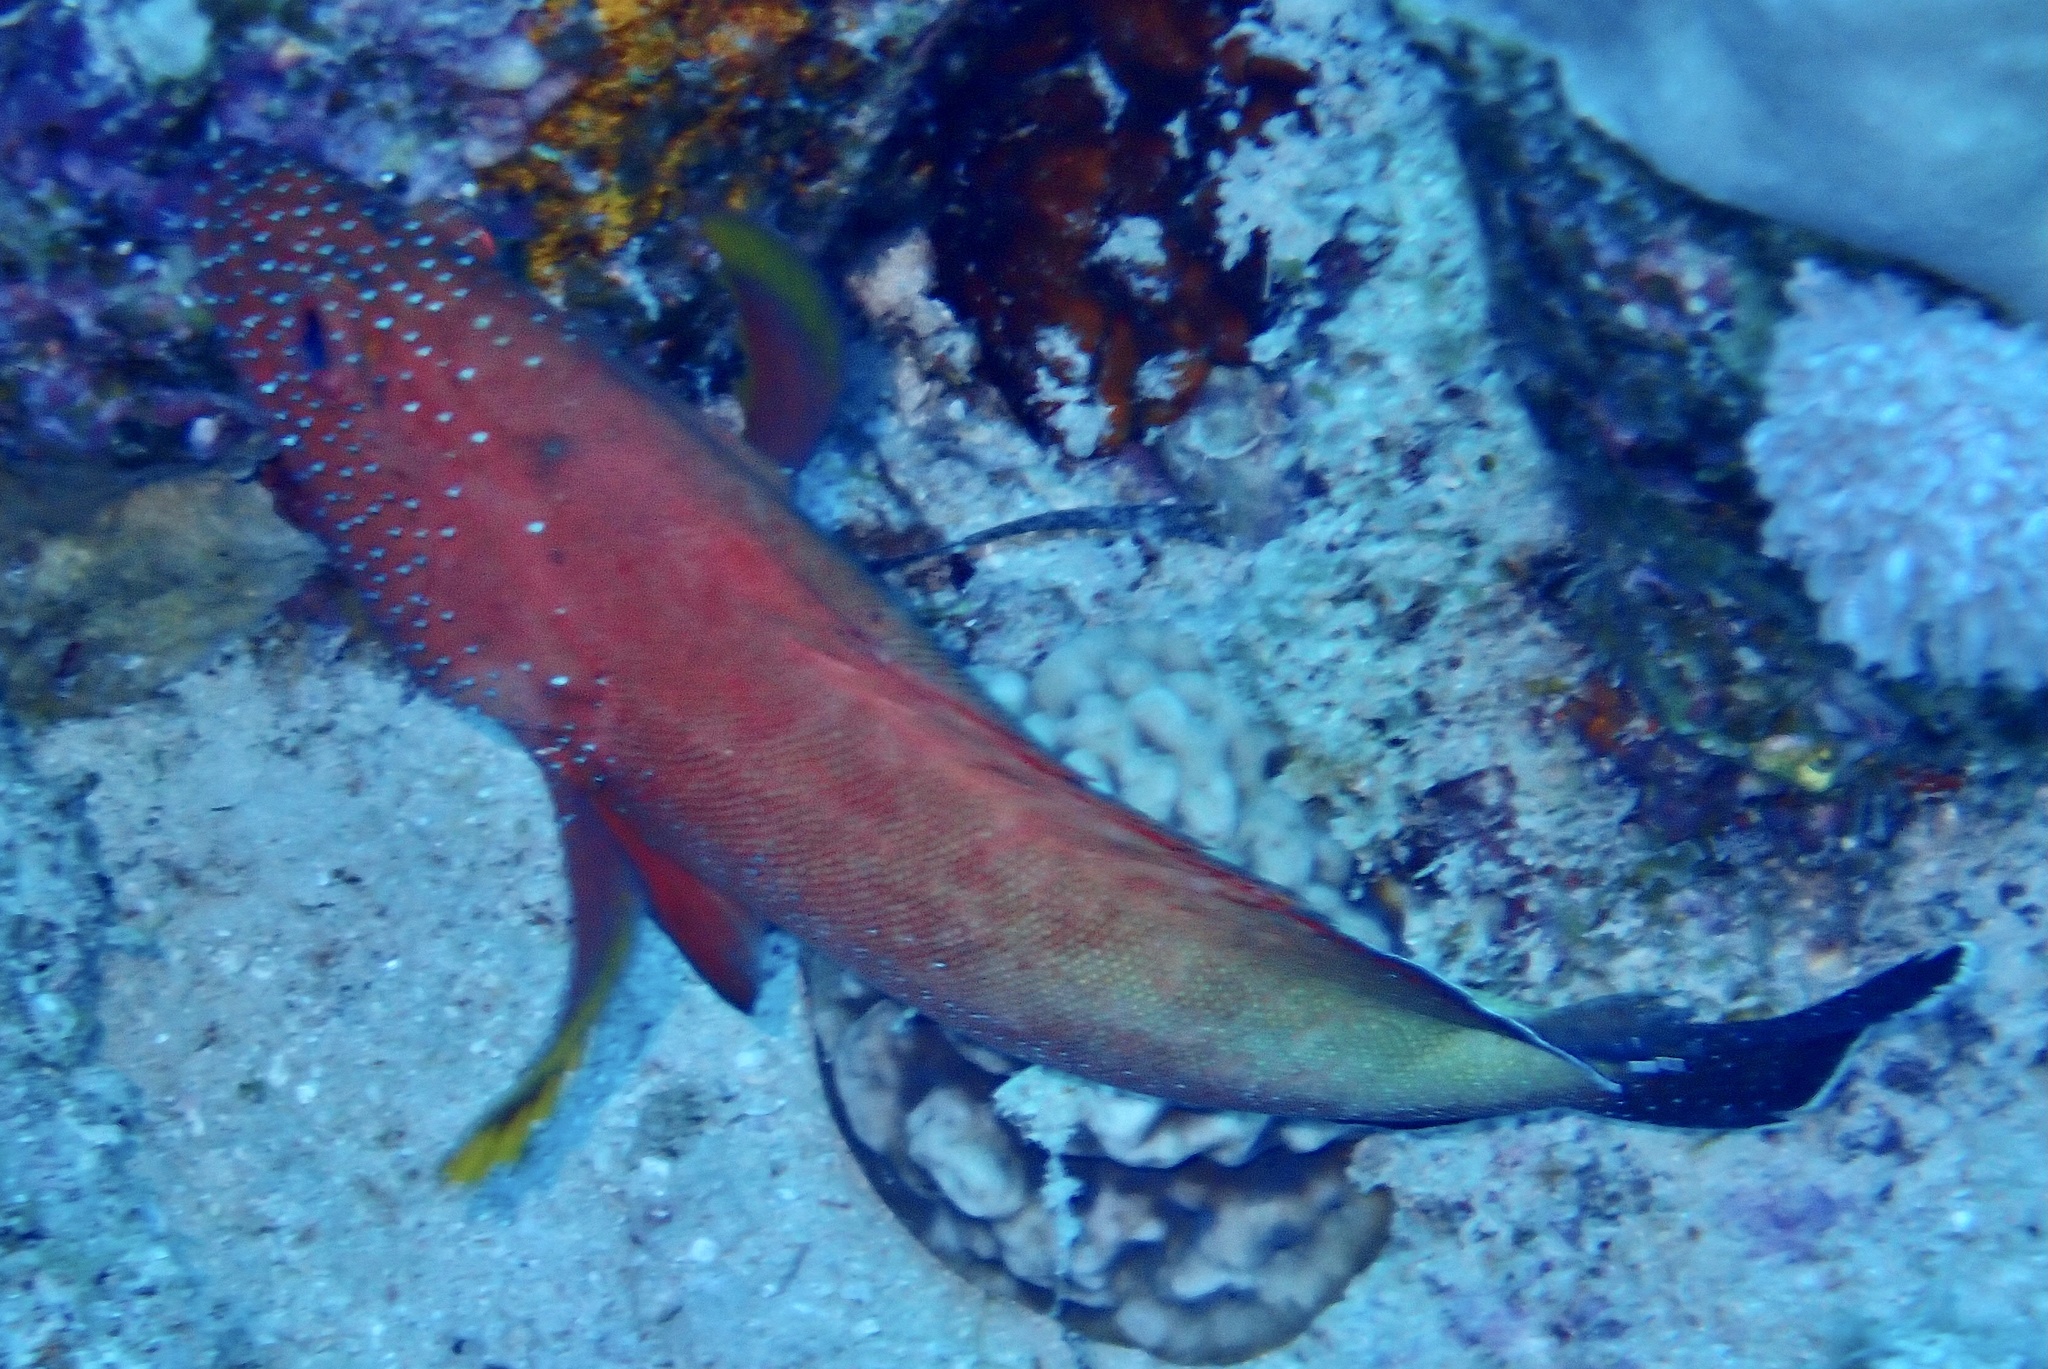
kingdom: Animalia
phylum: Chordata
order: Perciformes
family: Serranidae
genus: Cephalopholis
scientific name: Cephalopholis hemistiktos
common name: Halfspotted hind
